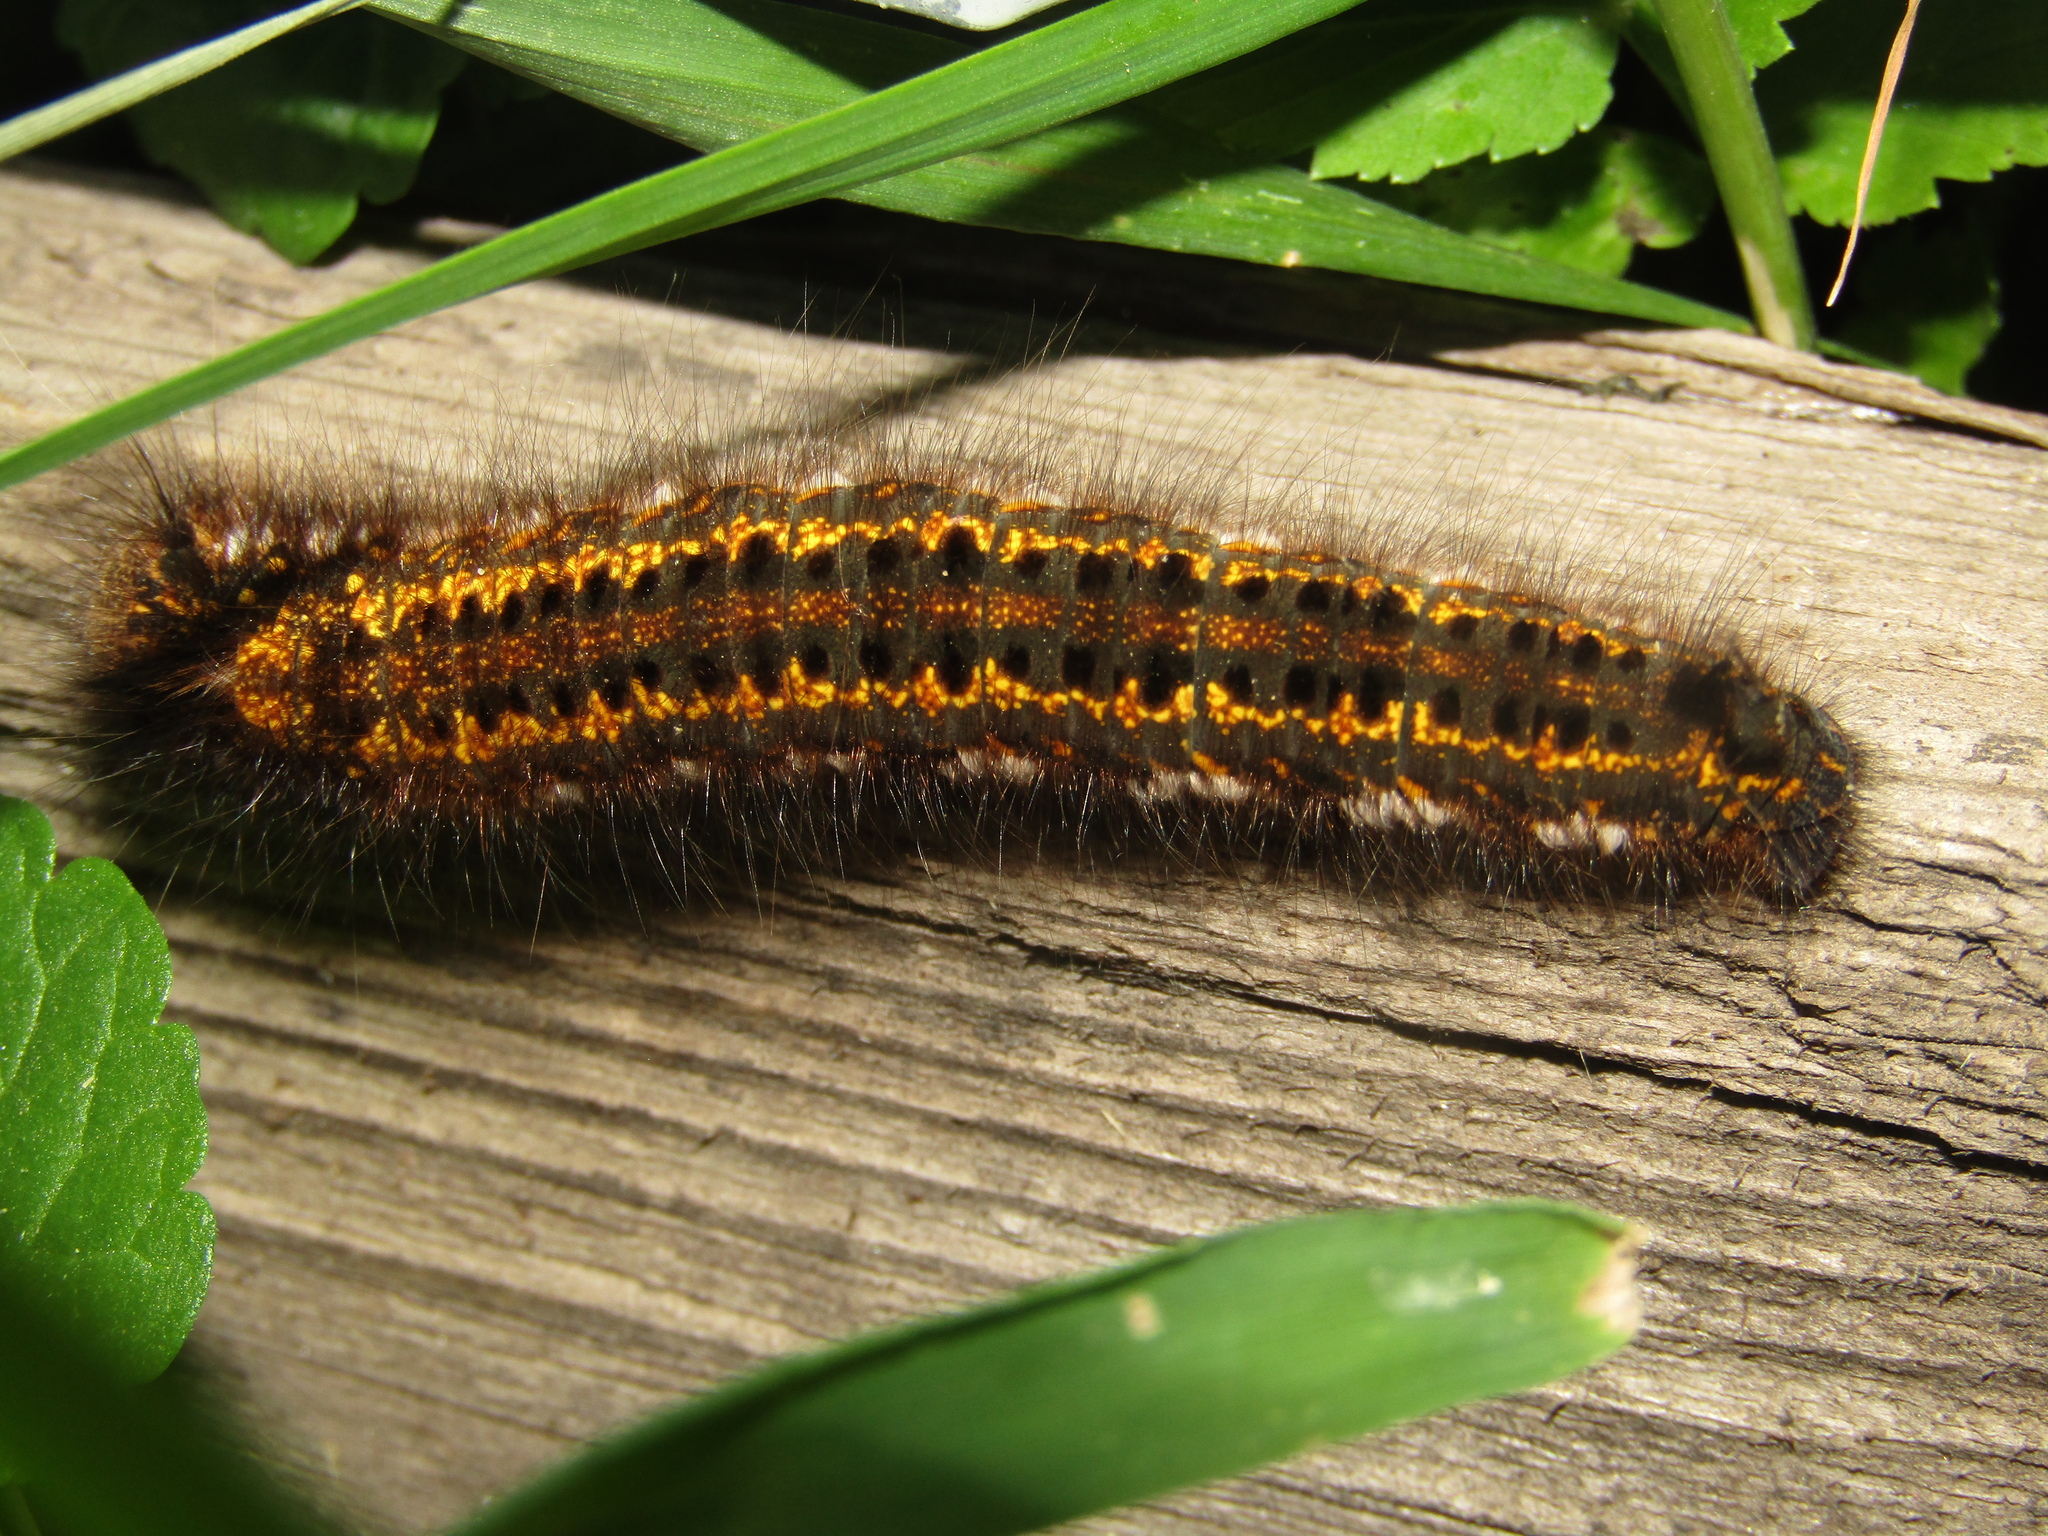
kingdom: Animalia
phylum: Arthropoda
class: Insecta
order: Lepidoptera
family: Lasiocampidae
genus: Euthrix
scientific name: Euthrix potatoria
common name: Drinker
